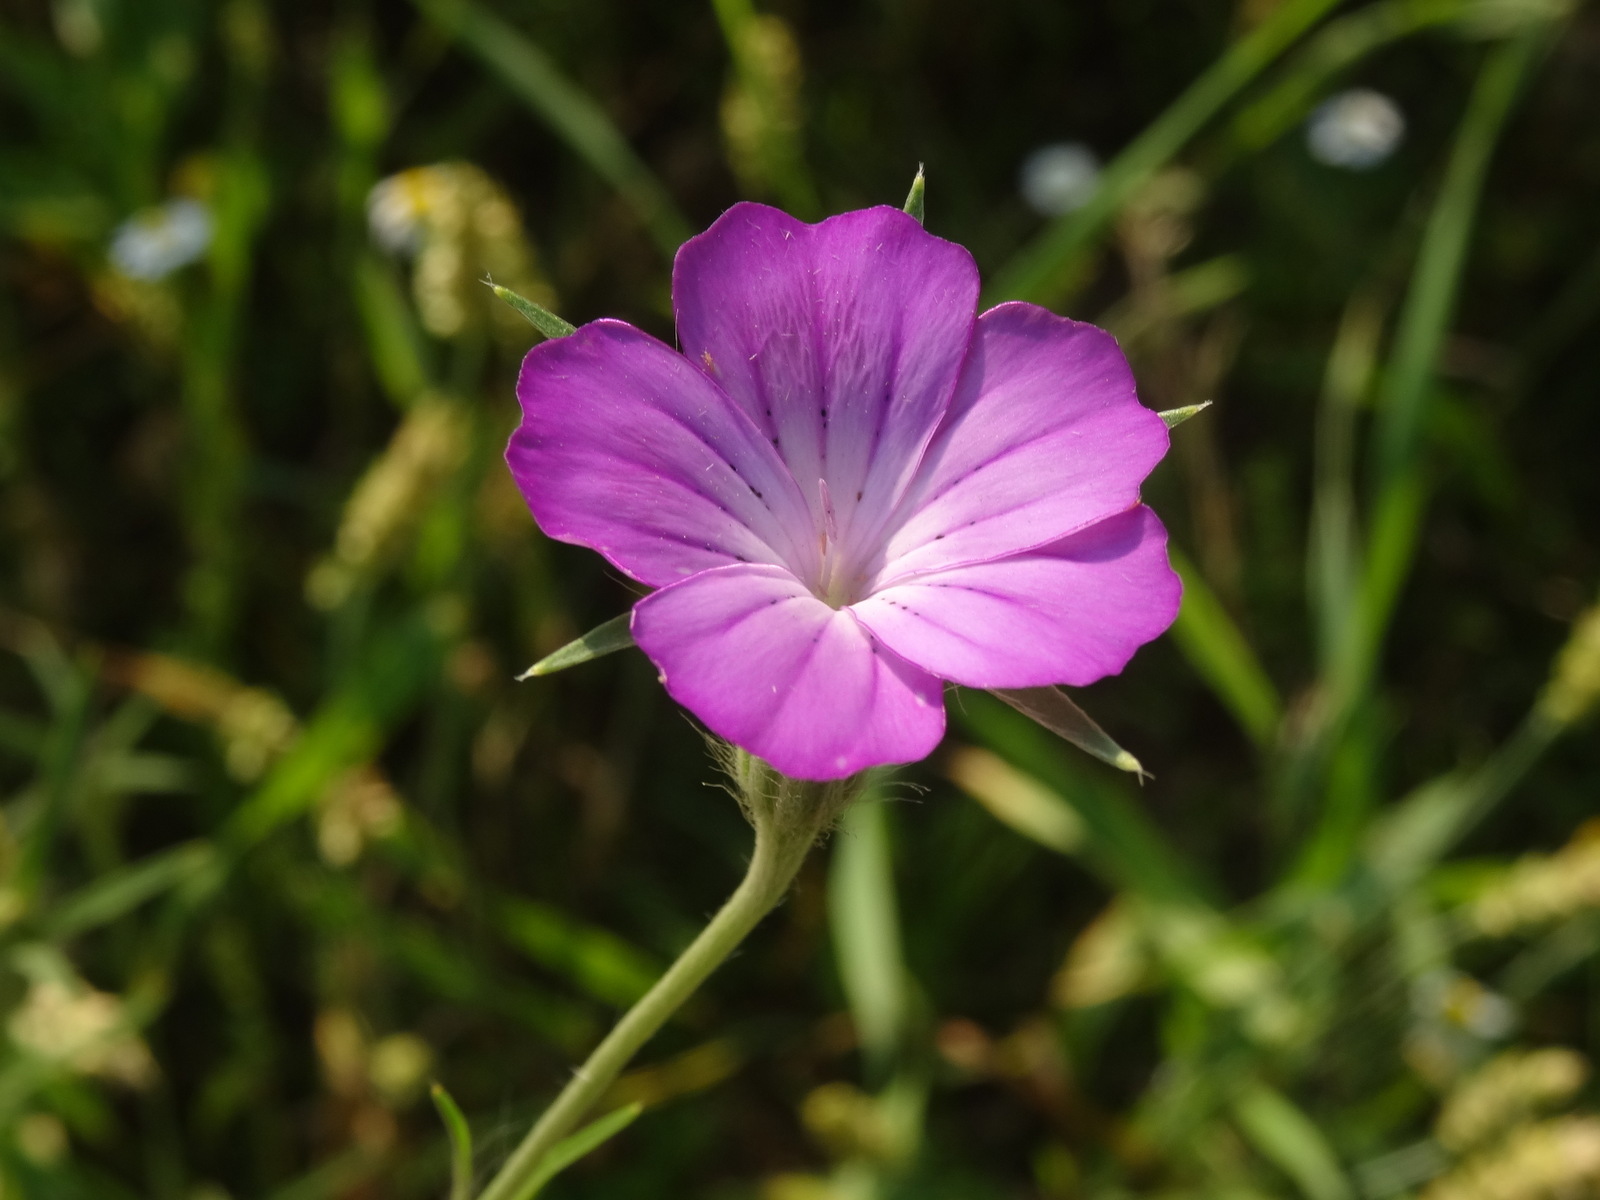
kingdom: Plantae
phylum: Tracheophyta
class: Magnoliopsida
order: Caryophyllales
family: Caryophyllaceae
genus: Agrostemma
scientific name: Agrostemma githago
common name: Common corncockle
